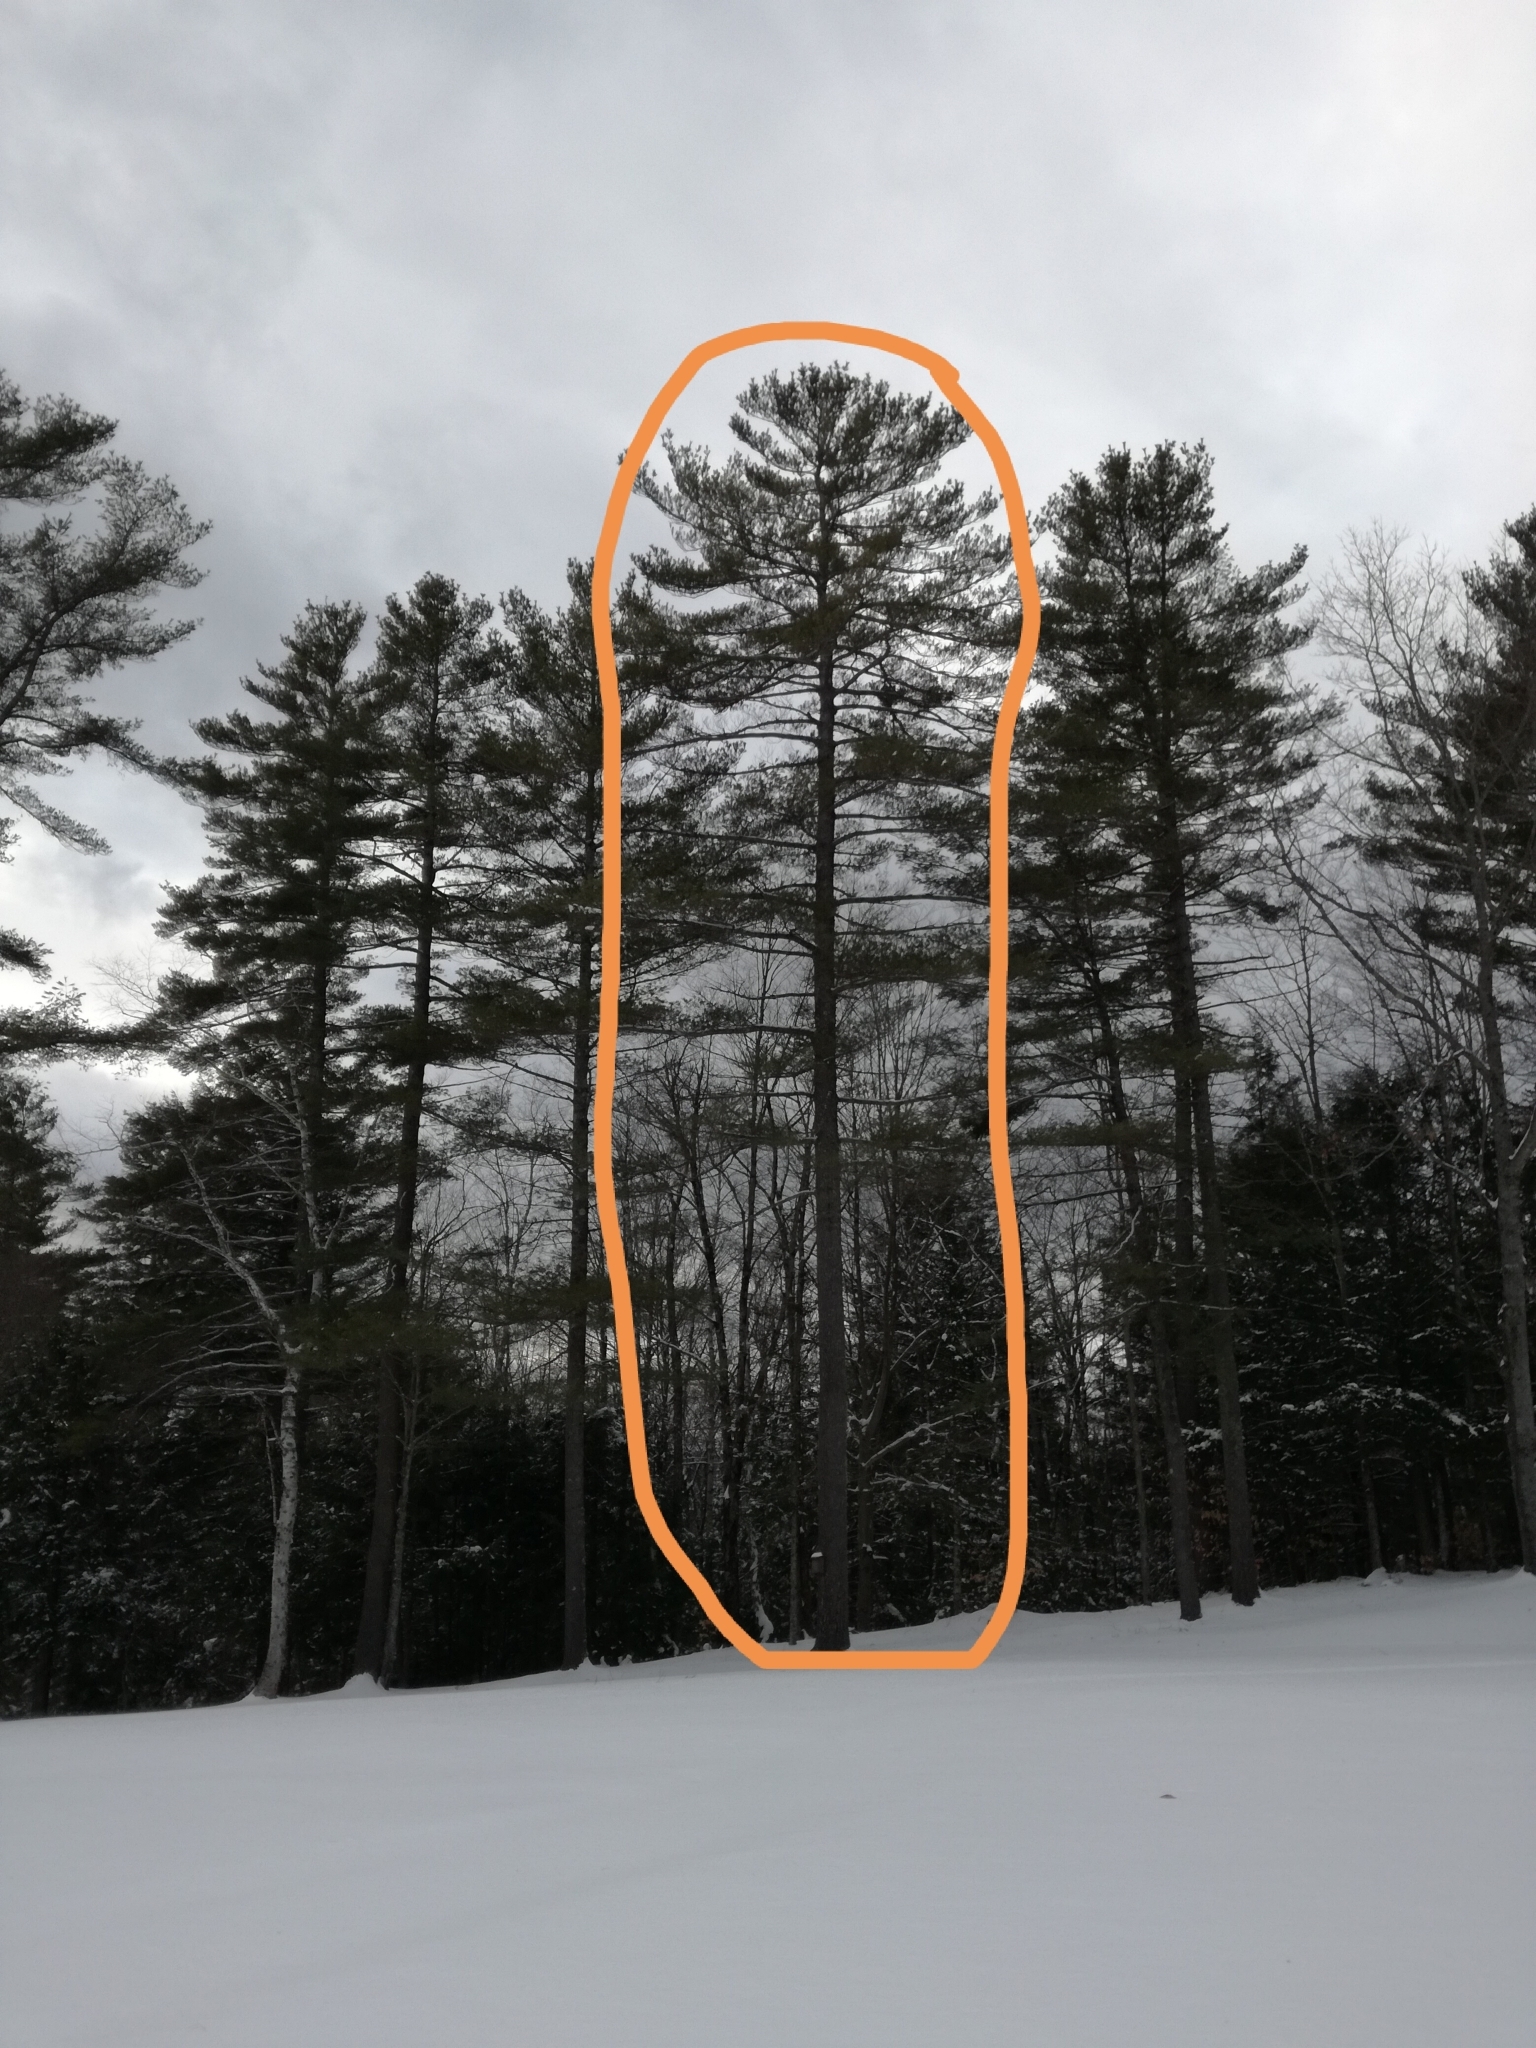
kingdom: Plantae
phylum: Tracheophyta
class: Pinopsida
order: Pinales
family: Pinaceae
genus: Pinus
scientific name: Pinus strobus
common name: Weymouth pine
